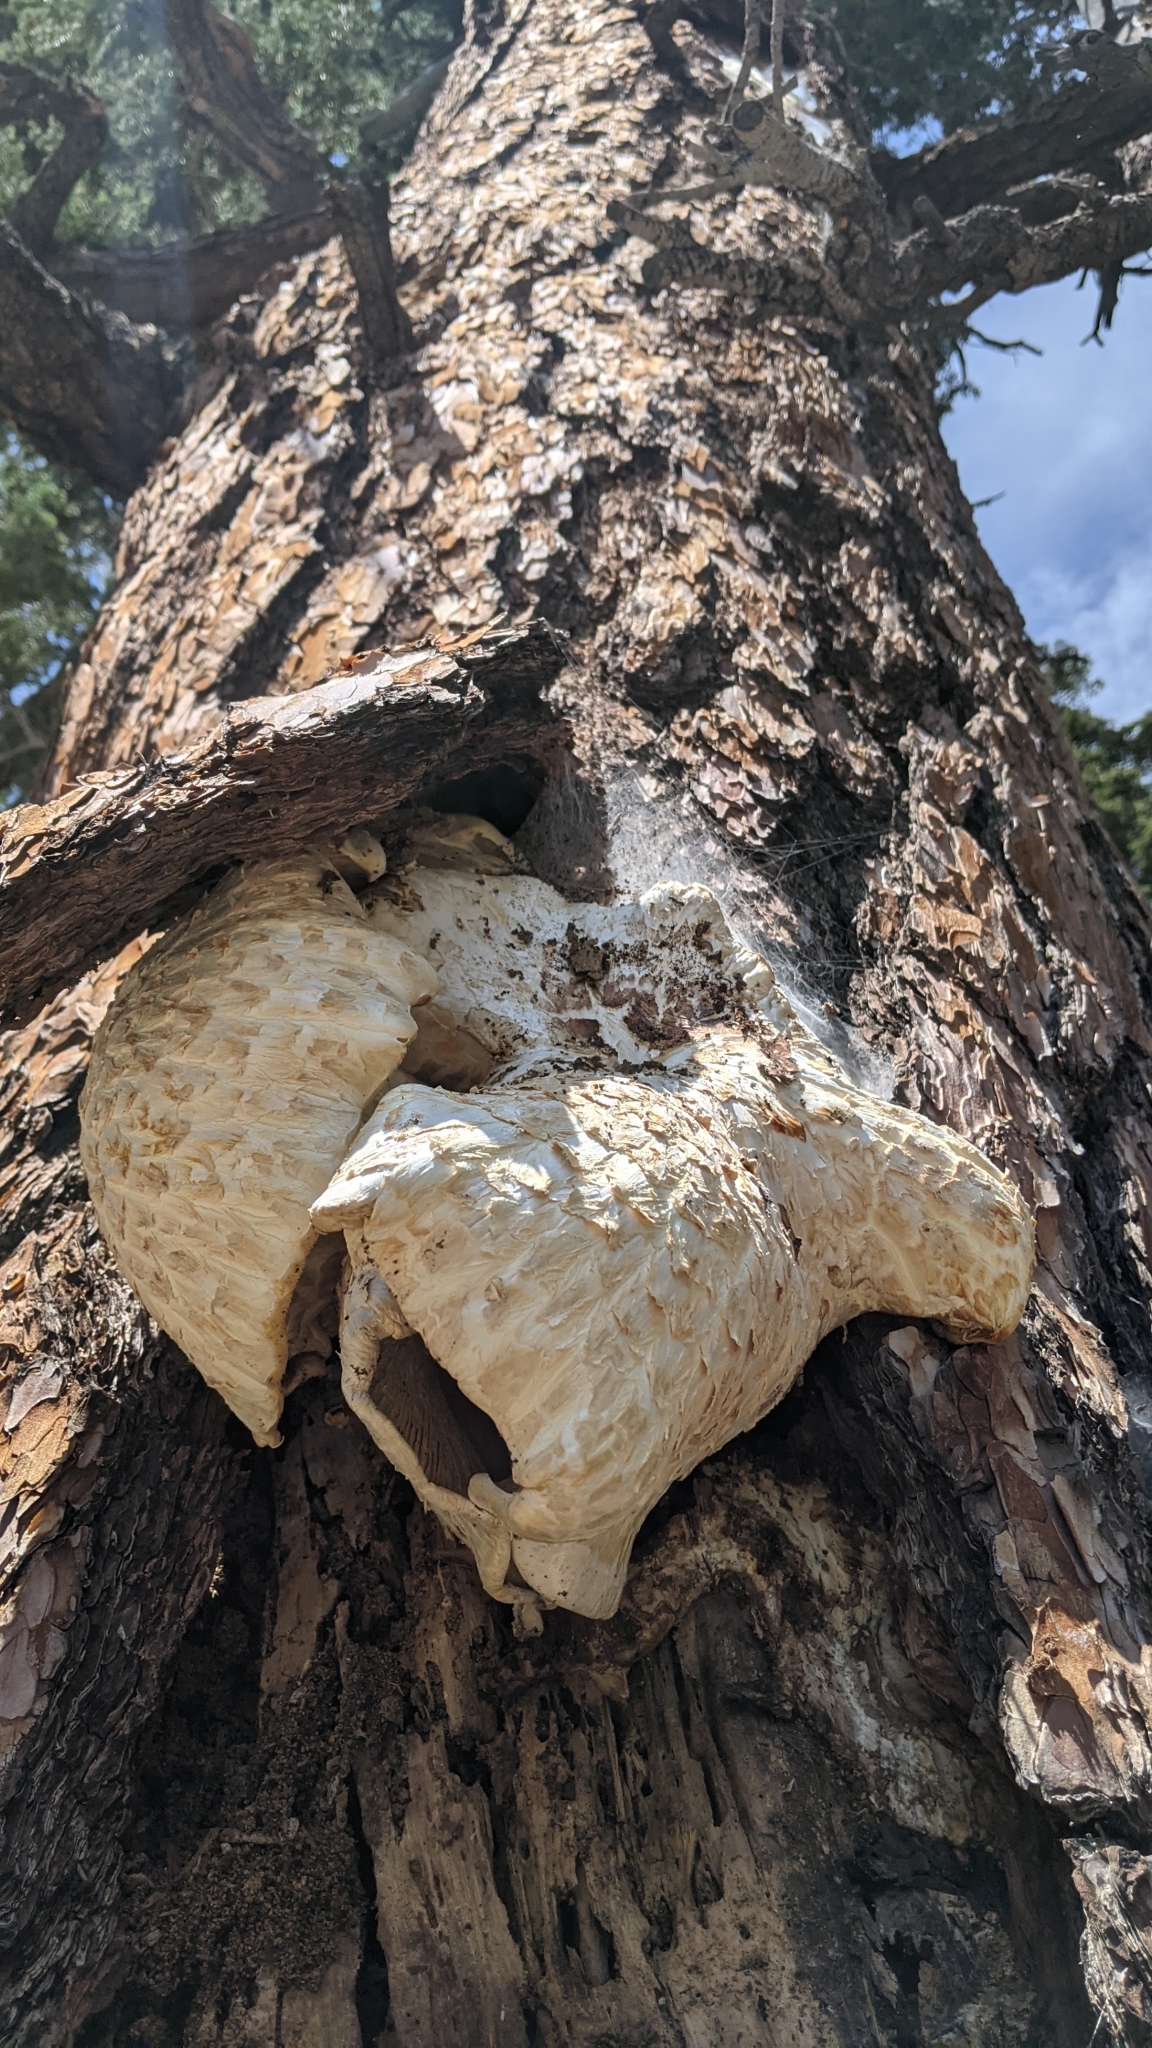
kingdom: Fungi
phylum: Basidiomycota
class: Agaricomycetes
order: Gloeophyllales
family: Gloeophyllaceae
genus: Neolentinus
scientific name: Neolentinus ponderosus
